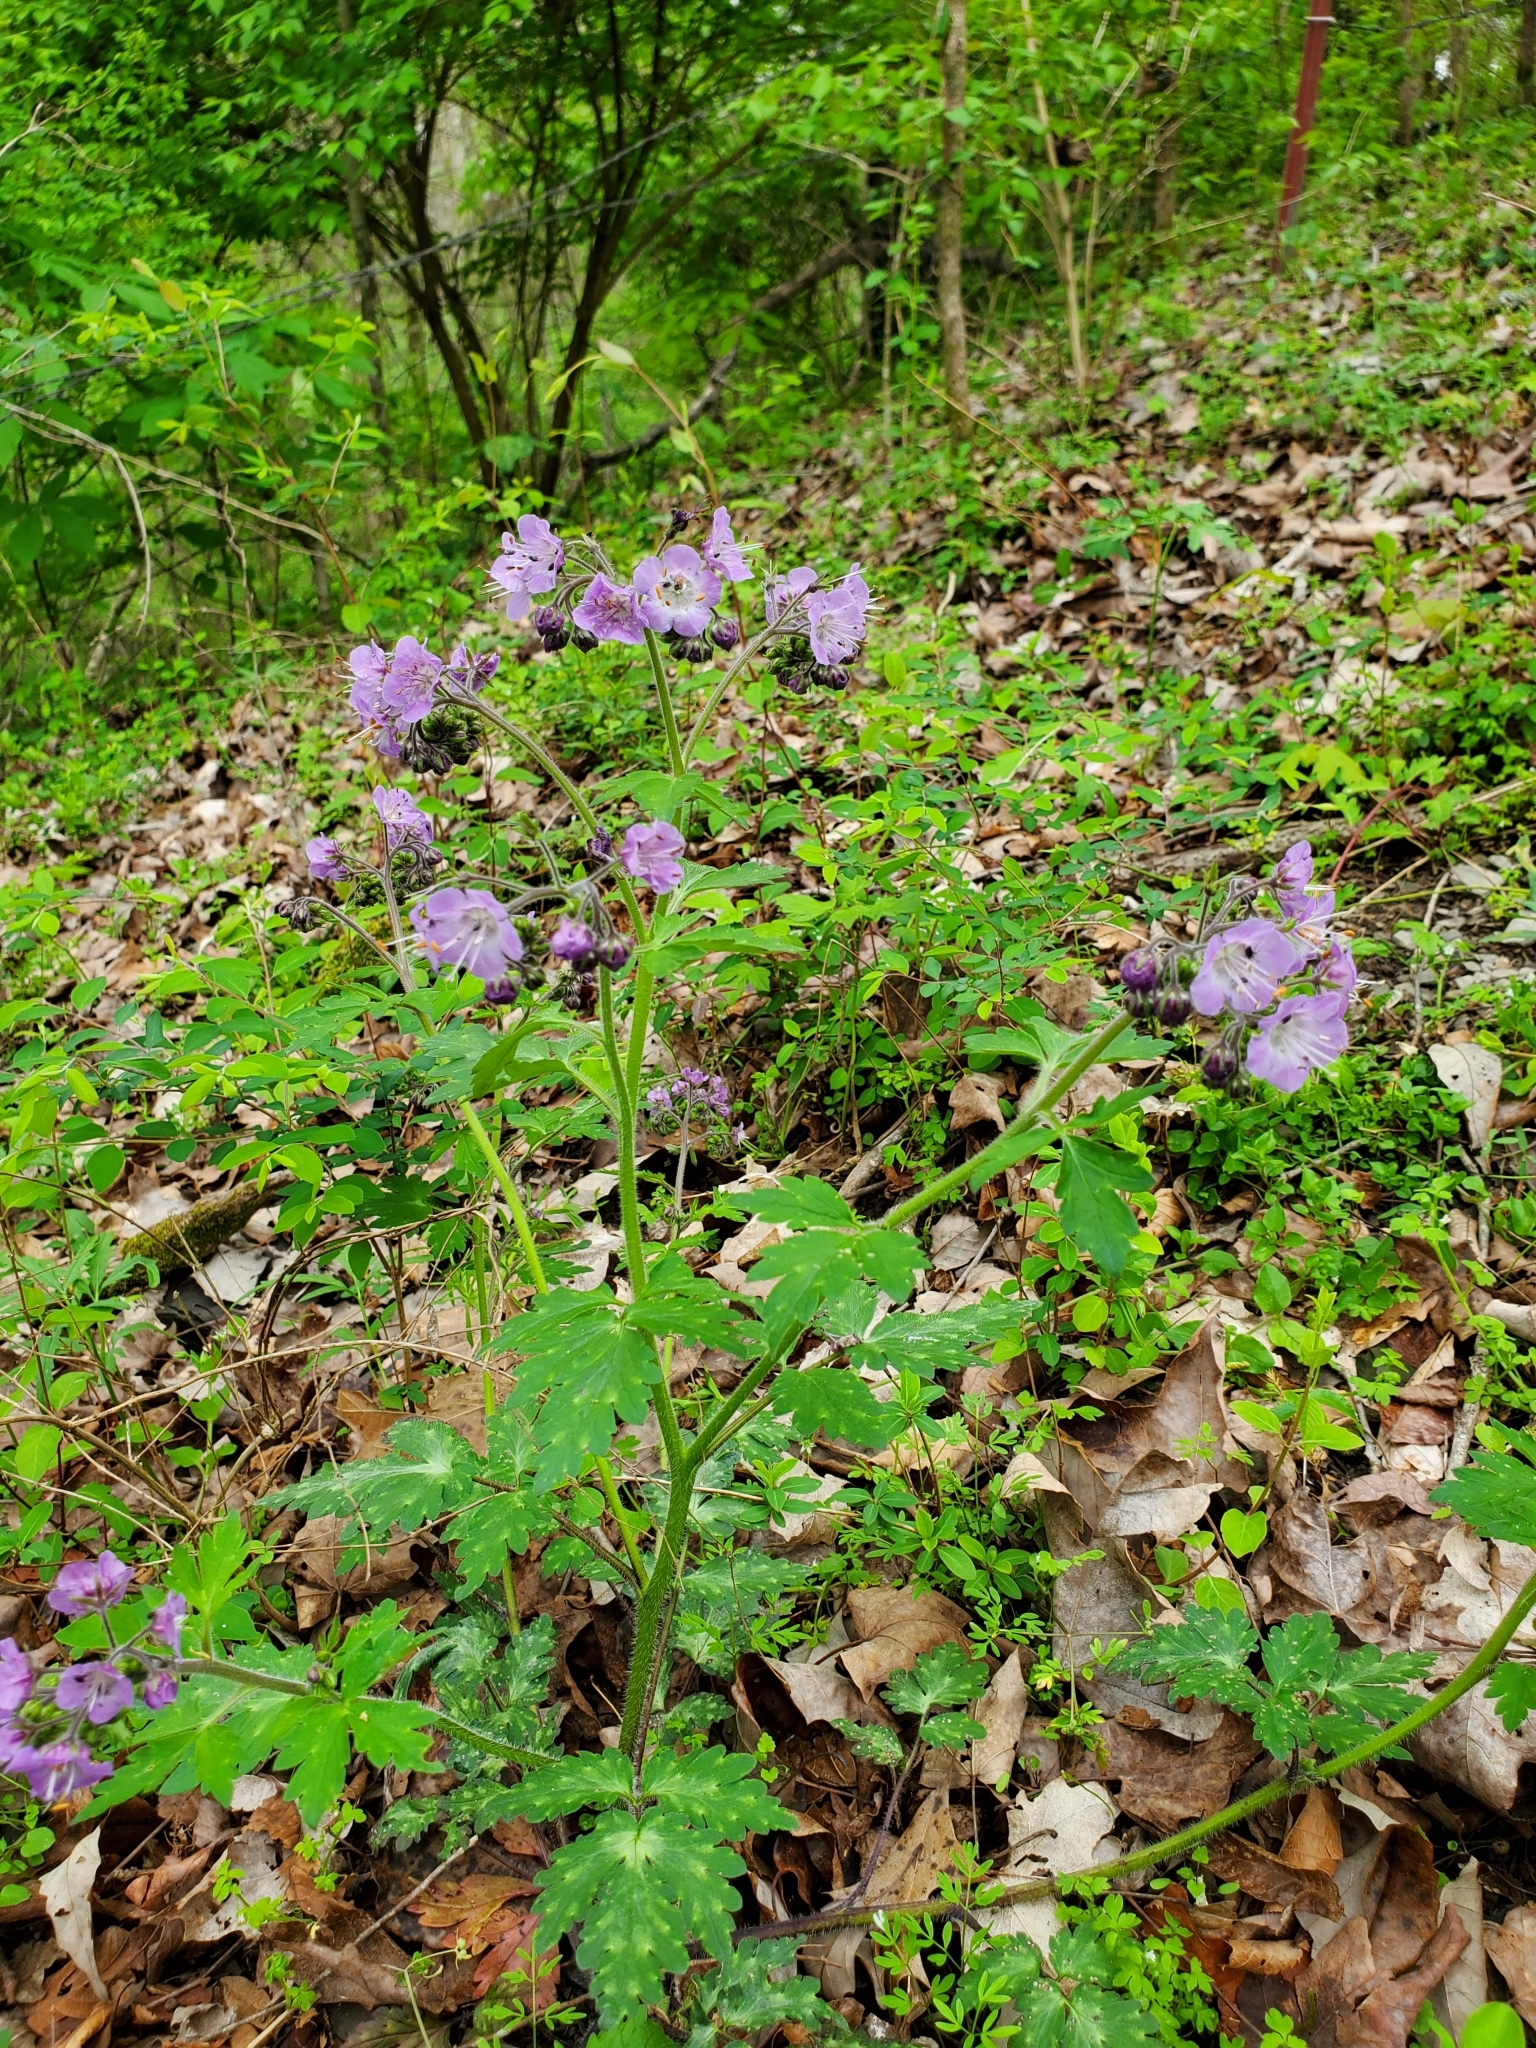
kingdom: Plantae
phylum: Tracheophyta
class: Magnoliopsida
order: Boraginales
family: Hydrophyllaceae
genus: Phacelia
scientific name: Phacelia bipinnatifida
